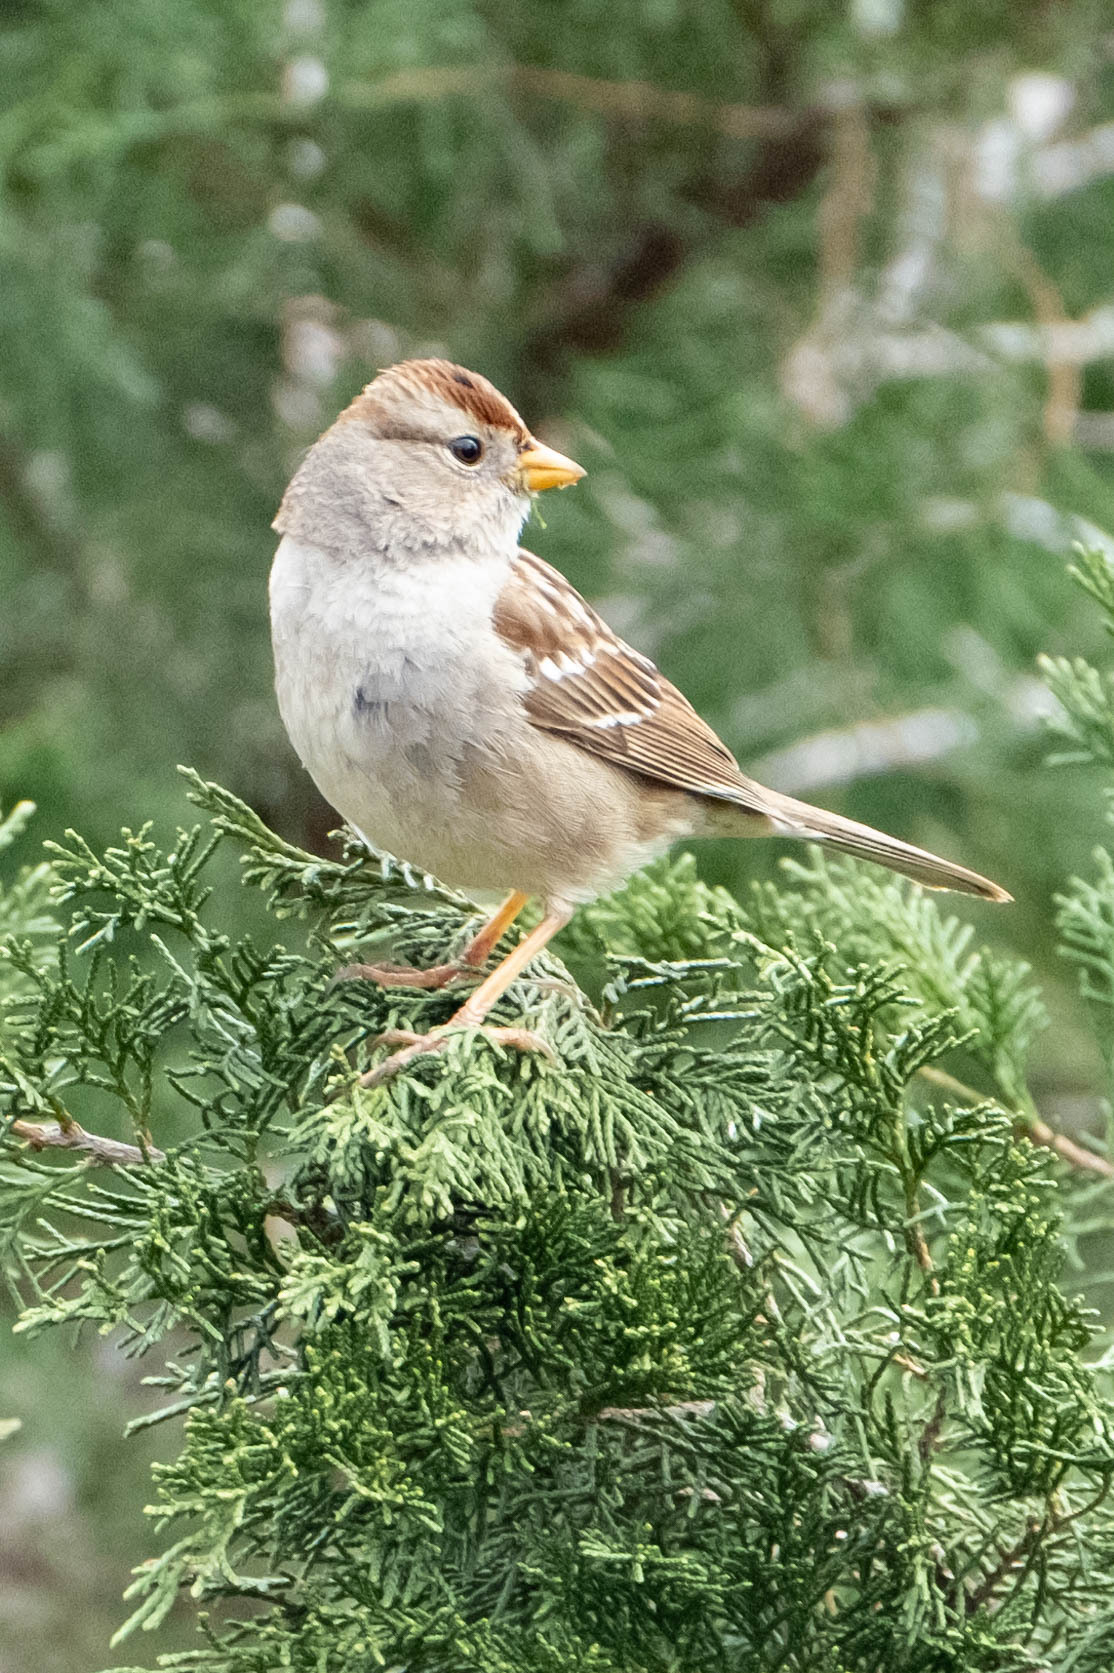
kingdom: Animalia
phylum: Chordata
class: Aves
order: Passeriformes
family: Passerellidae
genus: Zonotrichia
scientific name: Zonotrichia leucophrys
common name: White-crowned sparrow
